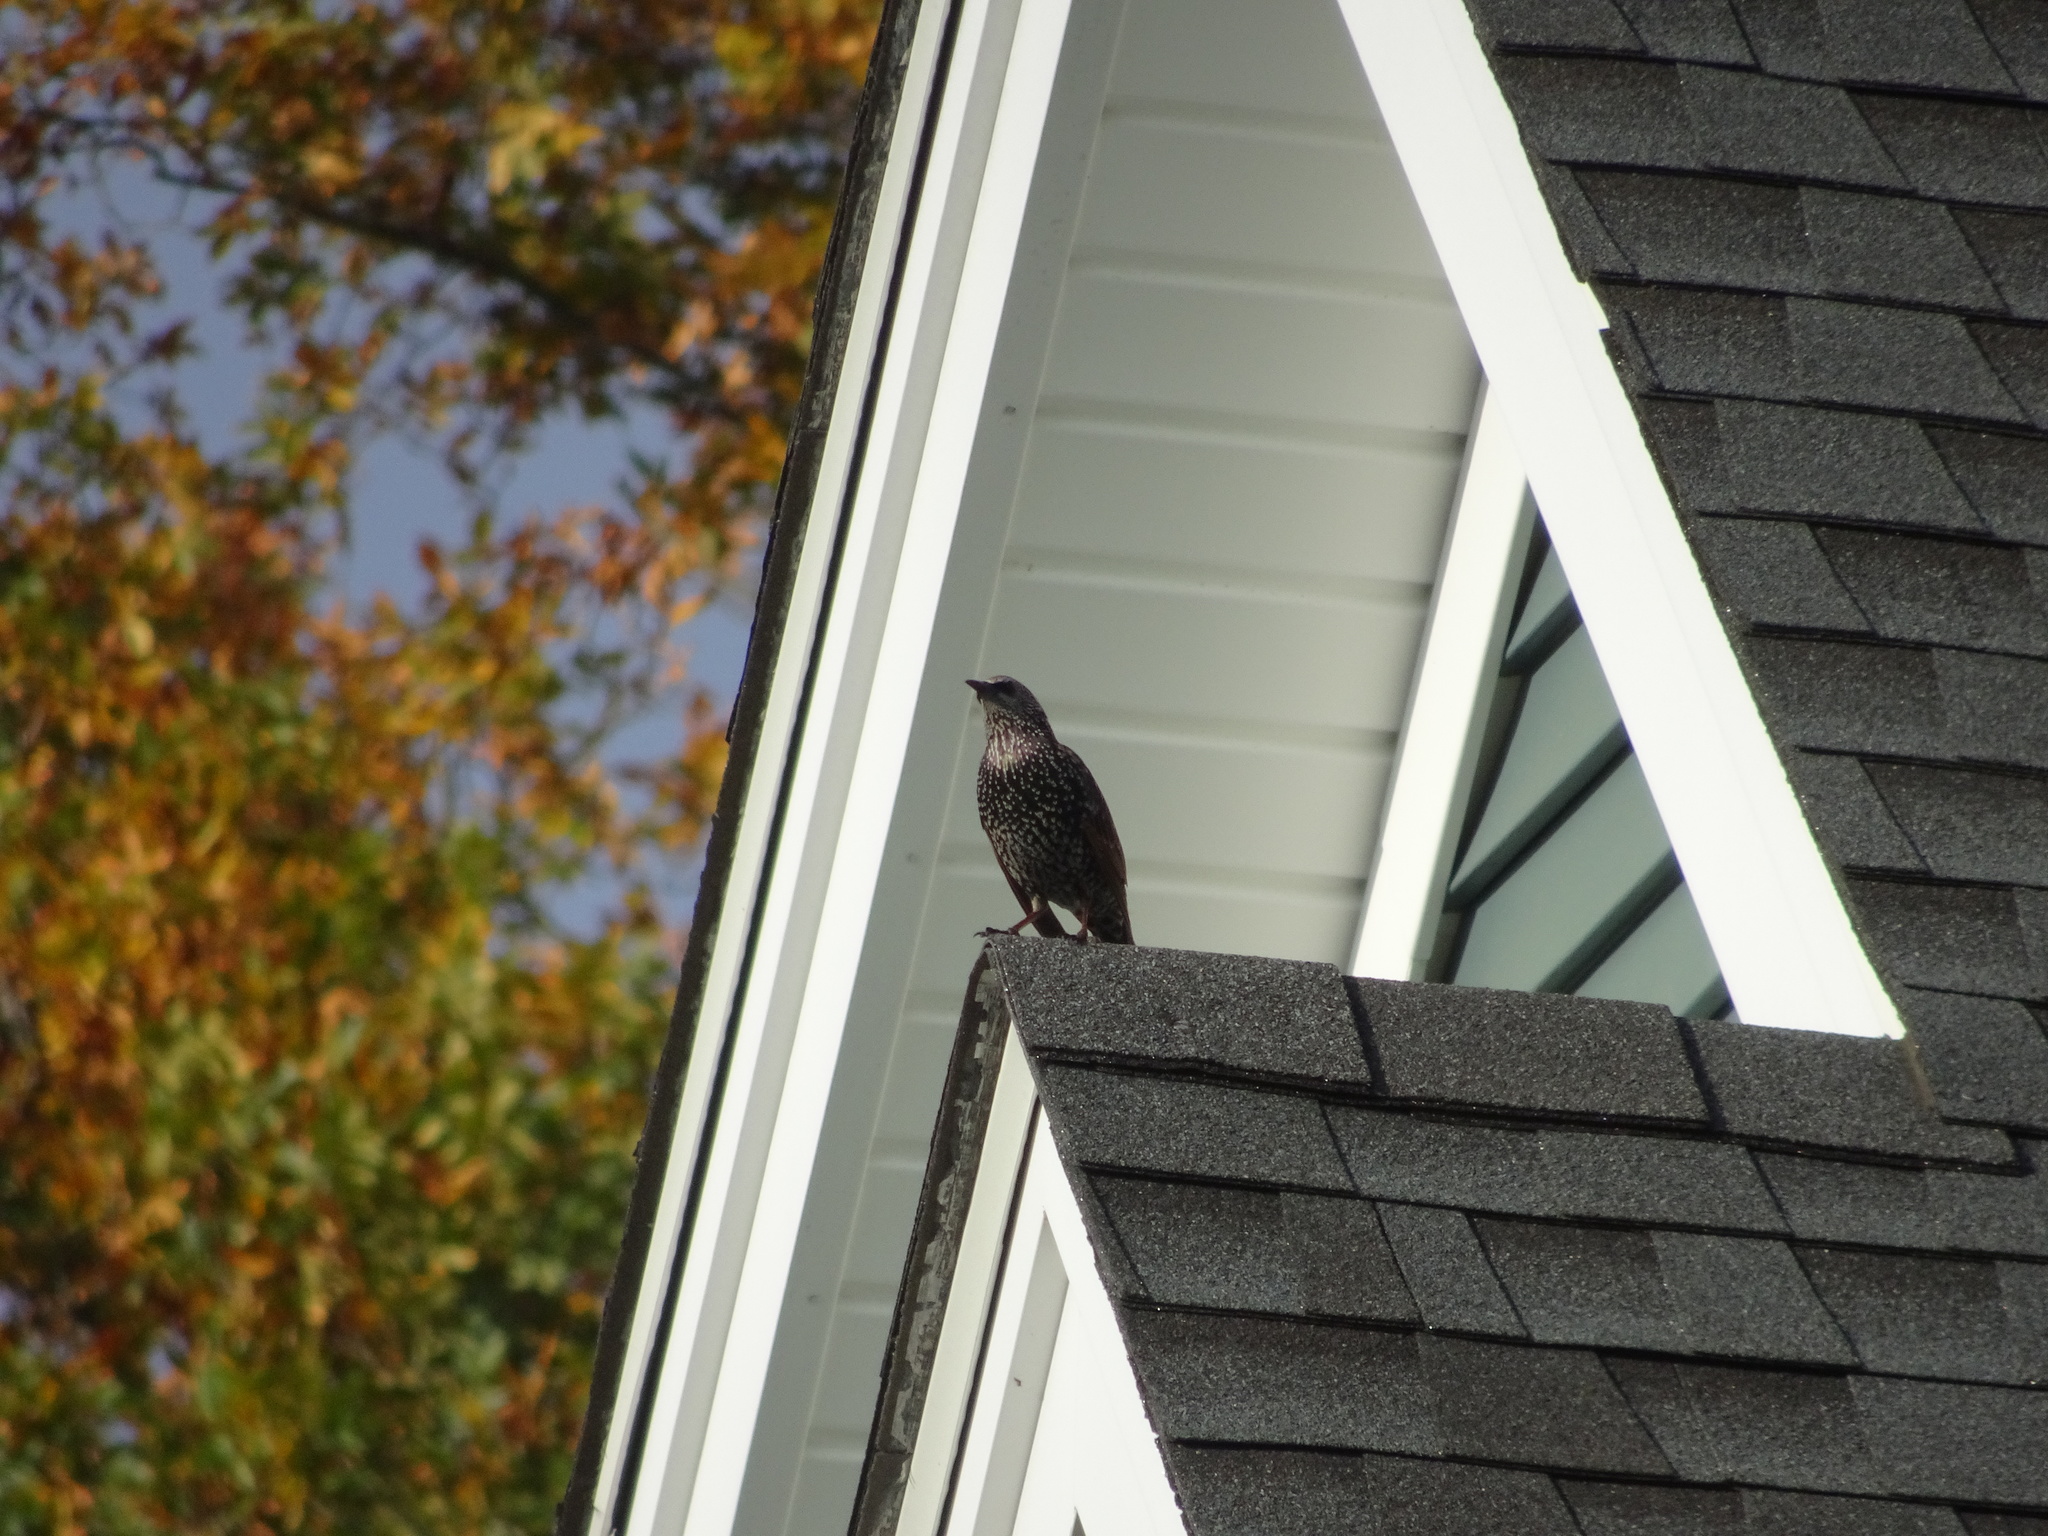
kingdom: Animalia
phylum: Chordata
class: Aves
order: Passeriformes
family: Sturnidae
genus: Sturnus
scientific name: Sturnus vulgaris
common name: Common starling
